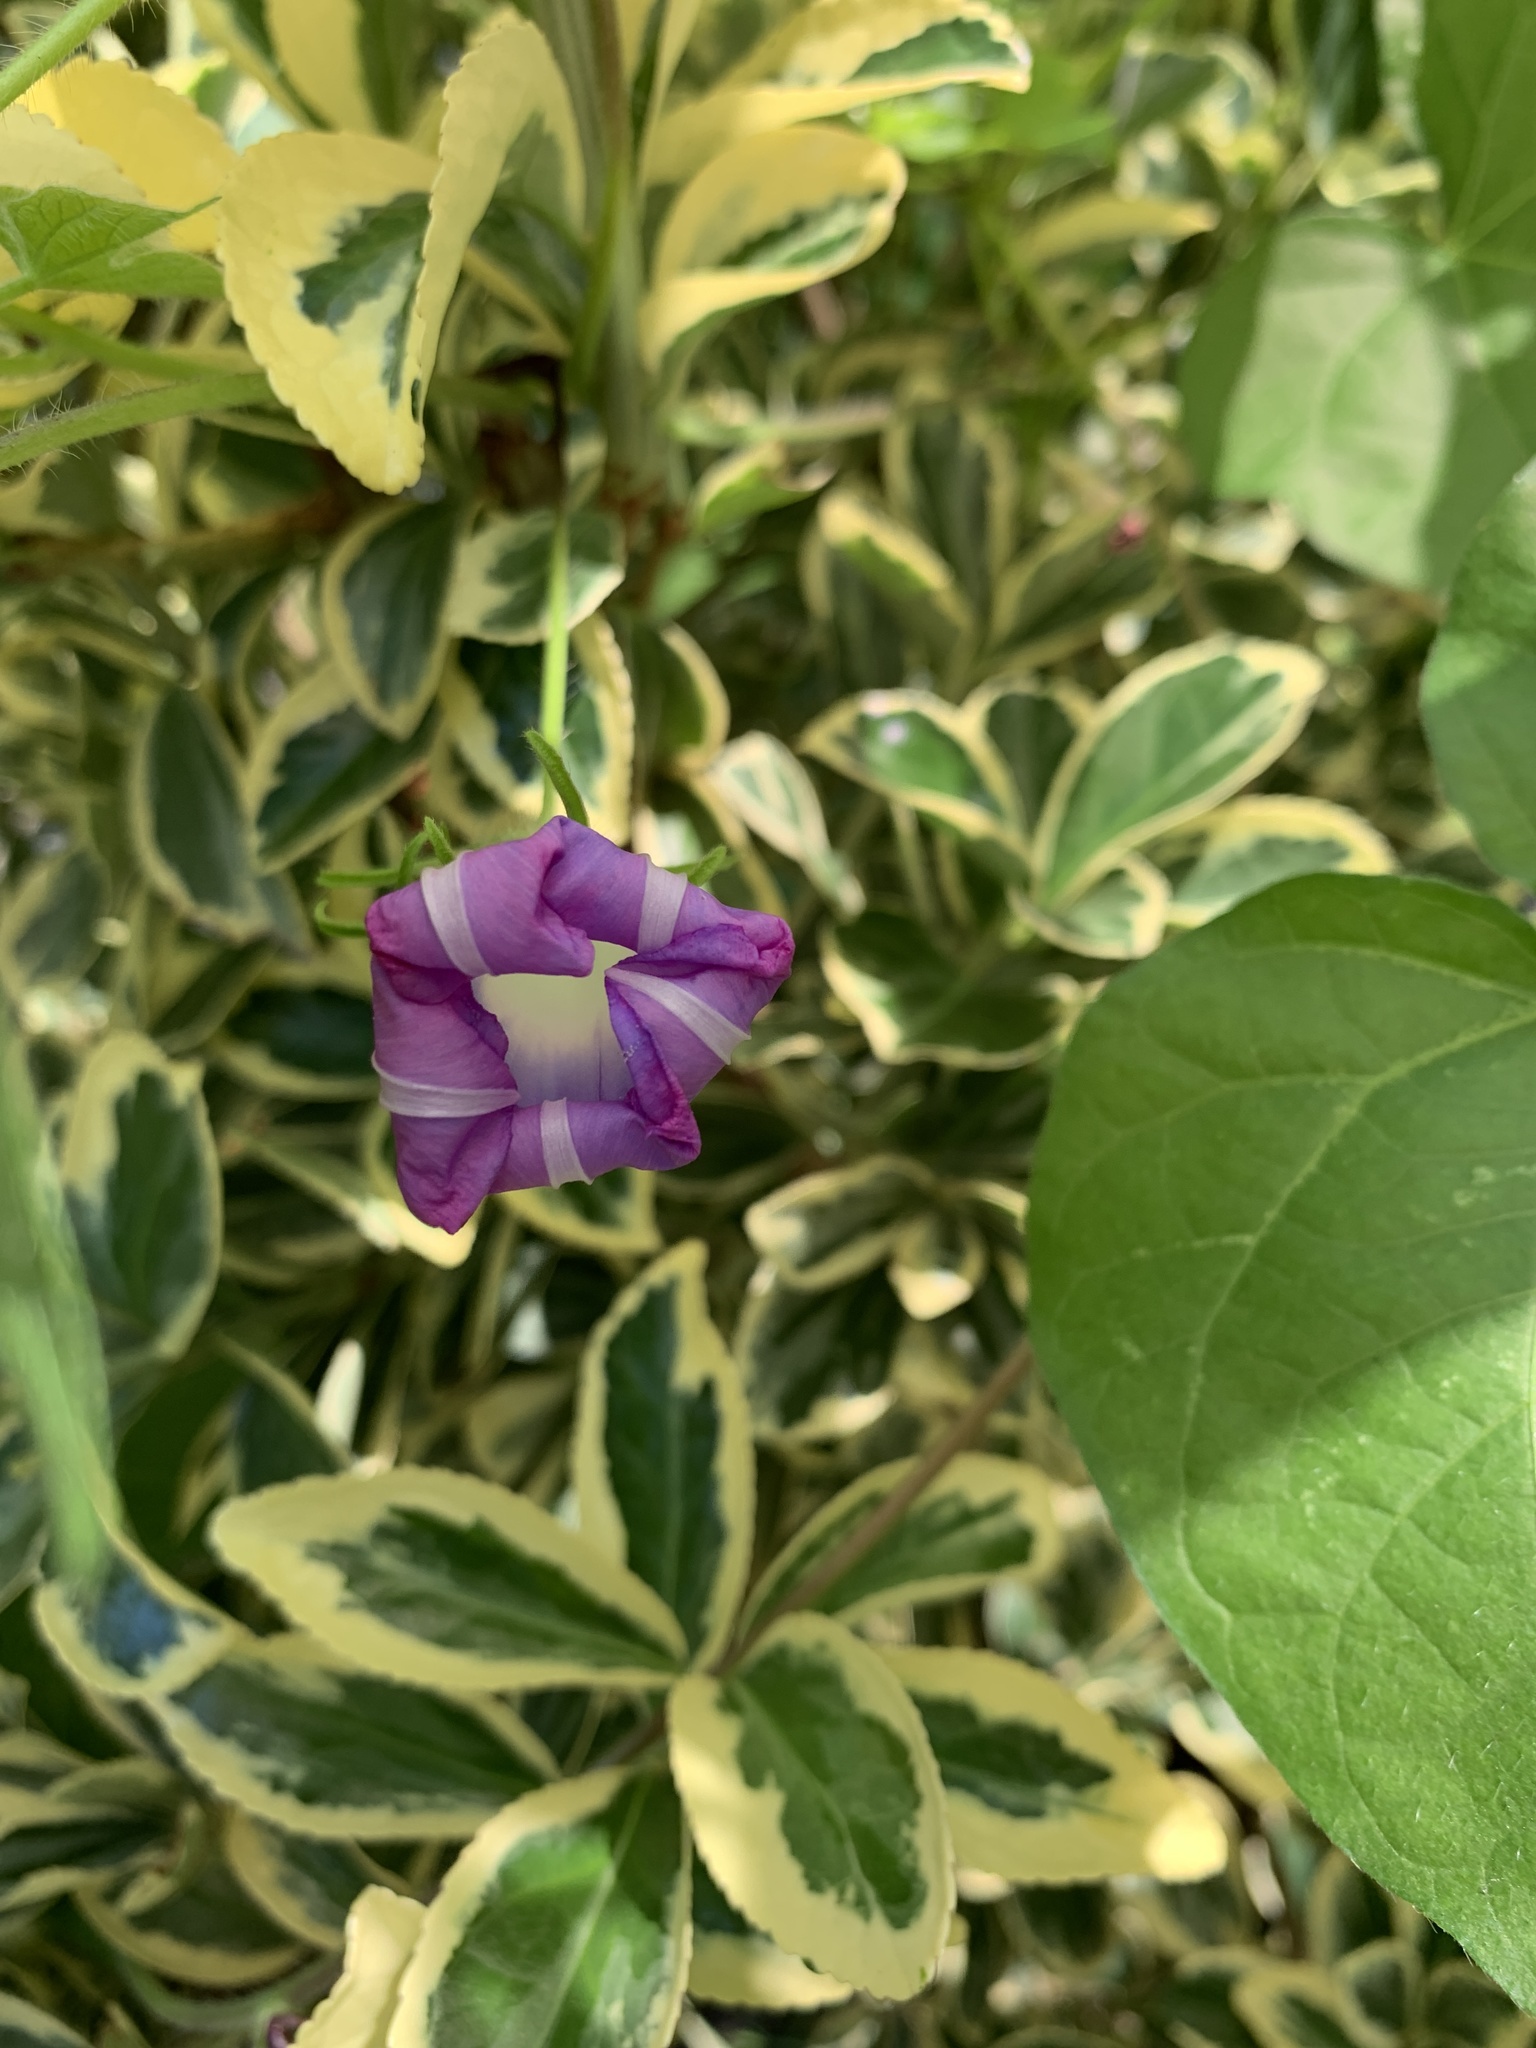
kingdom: Plantae
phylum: Tracheophyta
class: Magnoliopsida
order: Solanales
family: Convolvulaceae
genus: Ipomoea
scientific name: Ipomoea hederacea
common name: Ivy-leaved morning-glory
